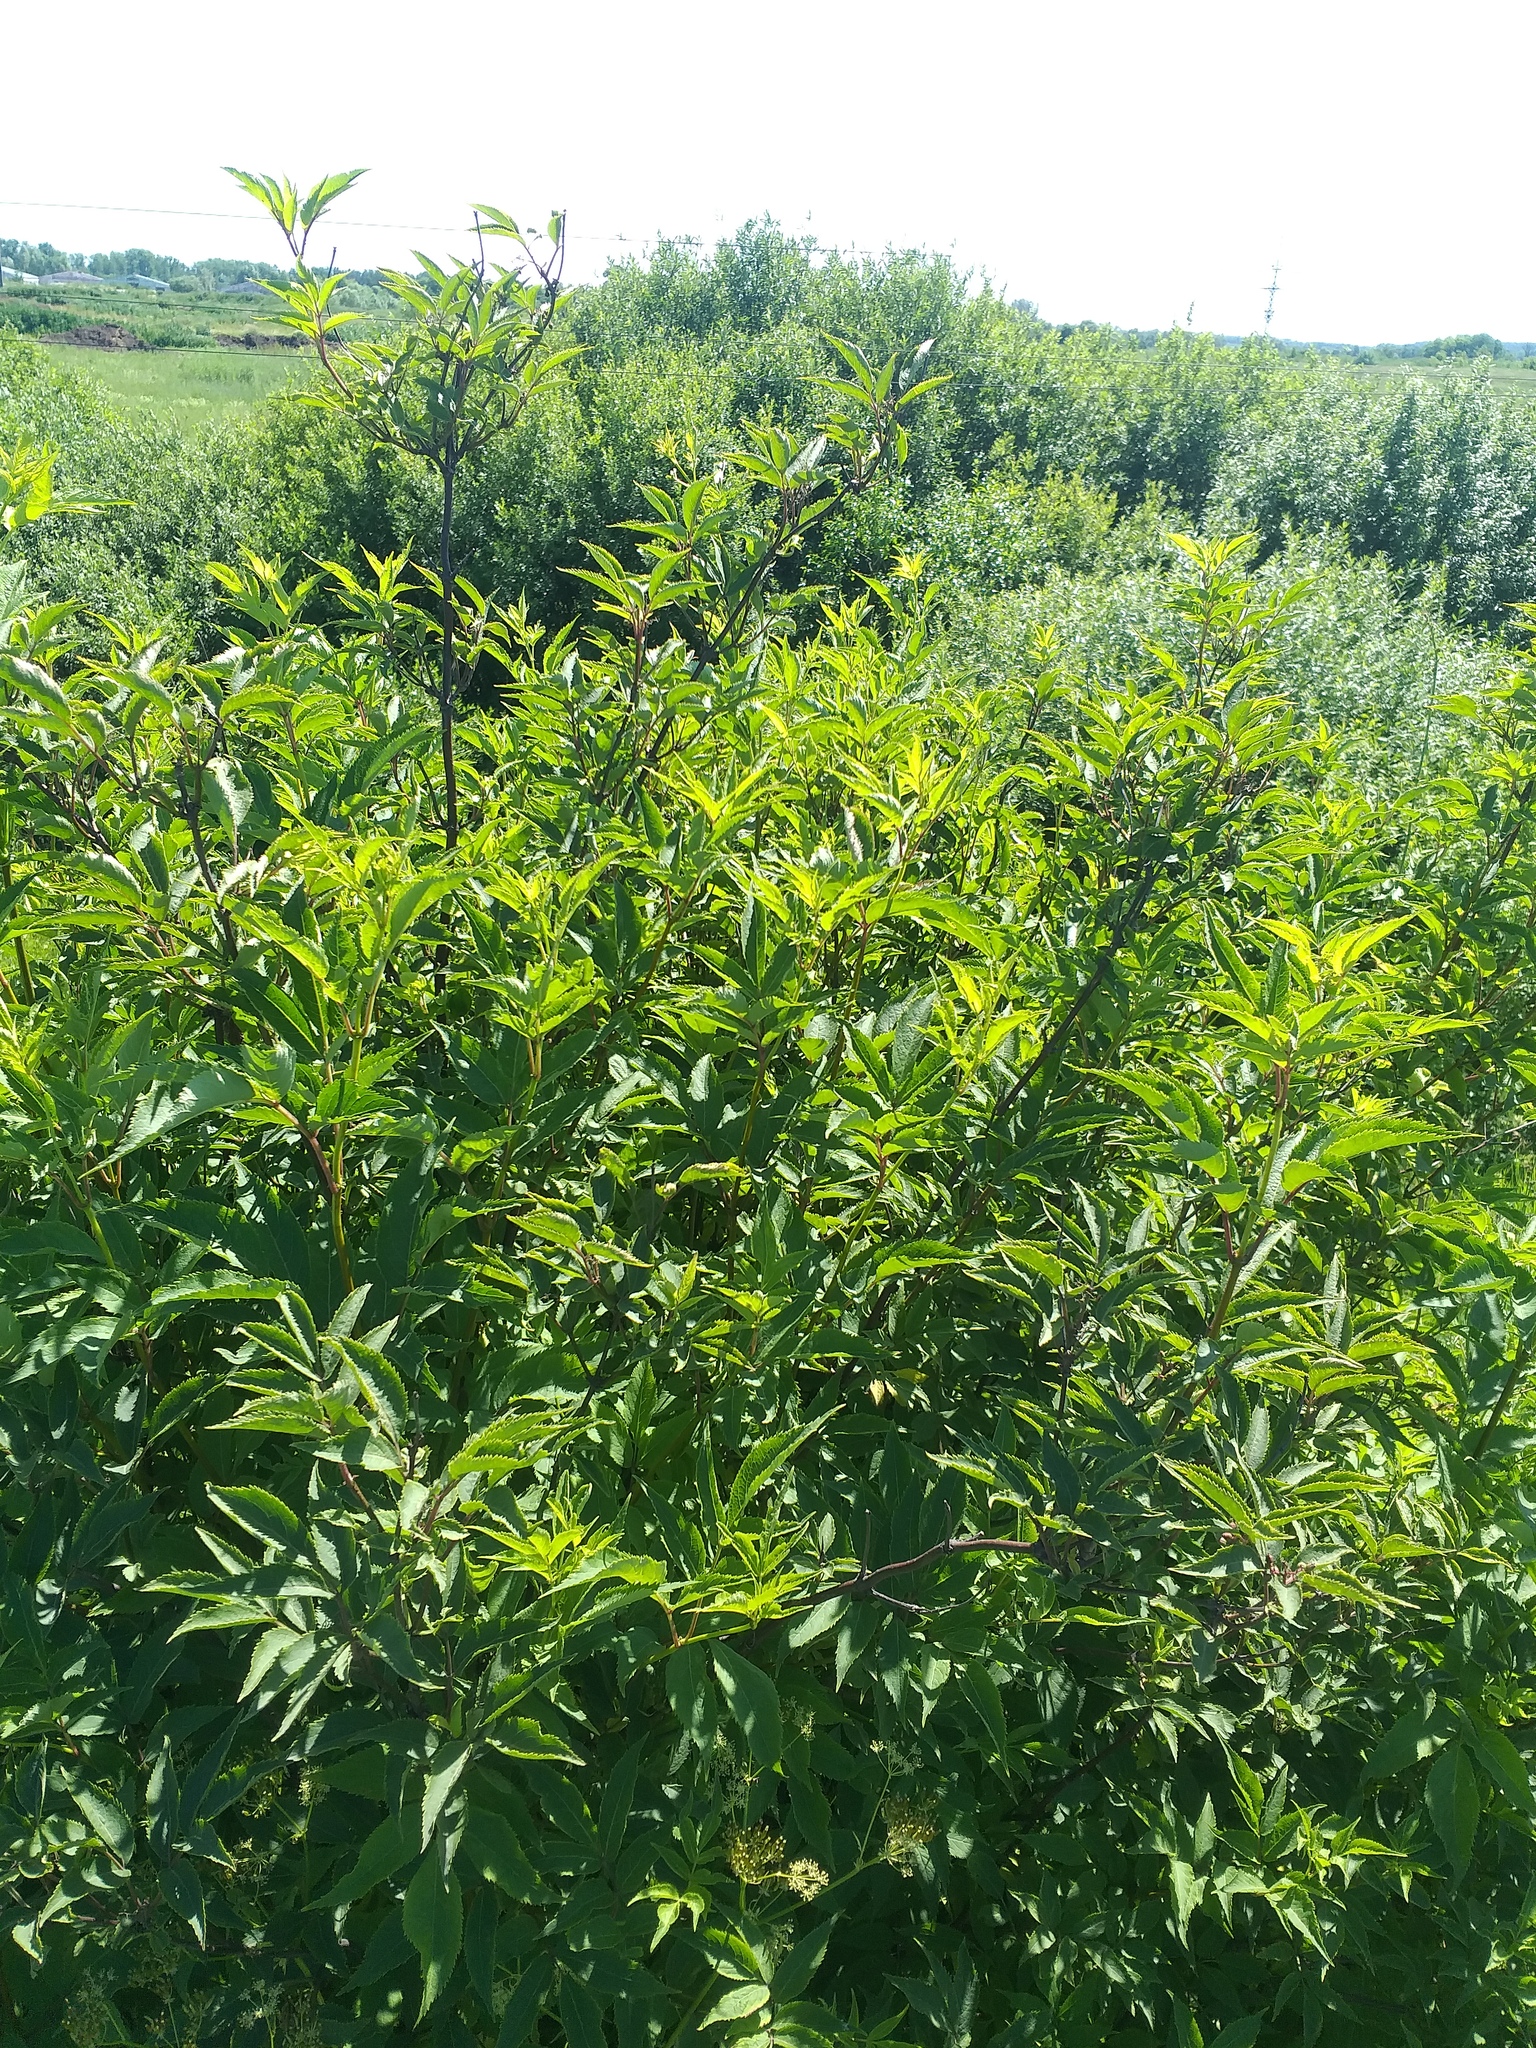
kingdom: Plantae
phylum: Tracheophyta
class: Magnoliopsida
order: Dipsacales
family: Viburnaceae
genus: Sambucus
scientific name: Sambucus racemosa
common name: Red-berried elder
